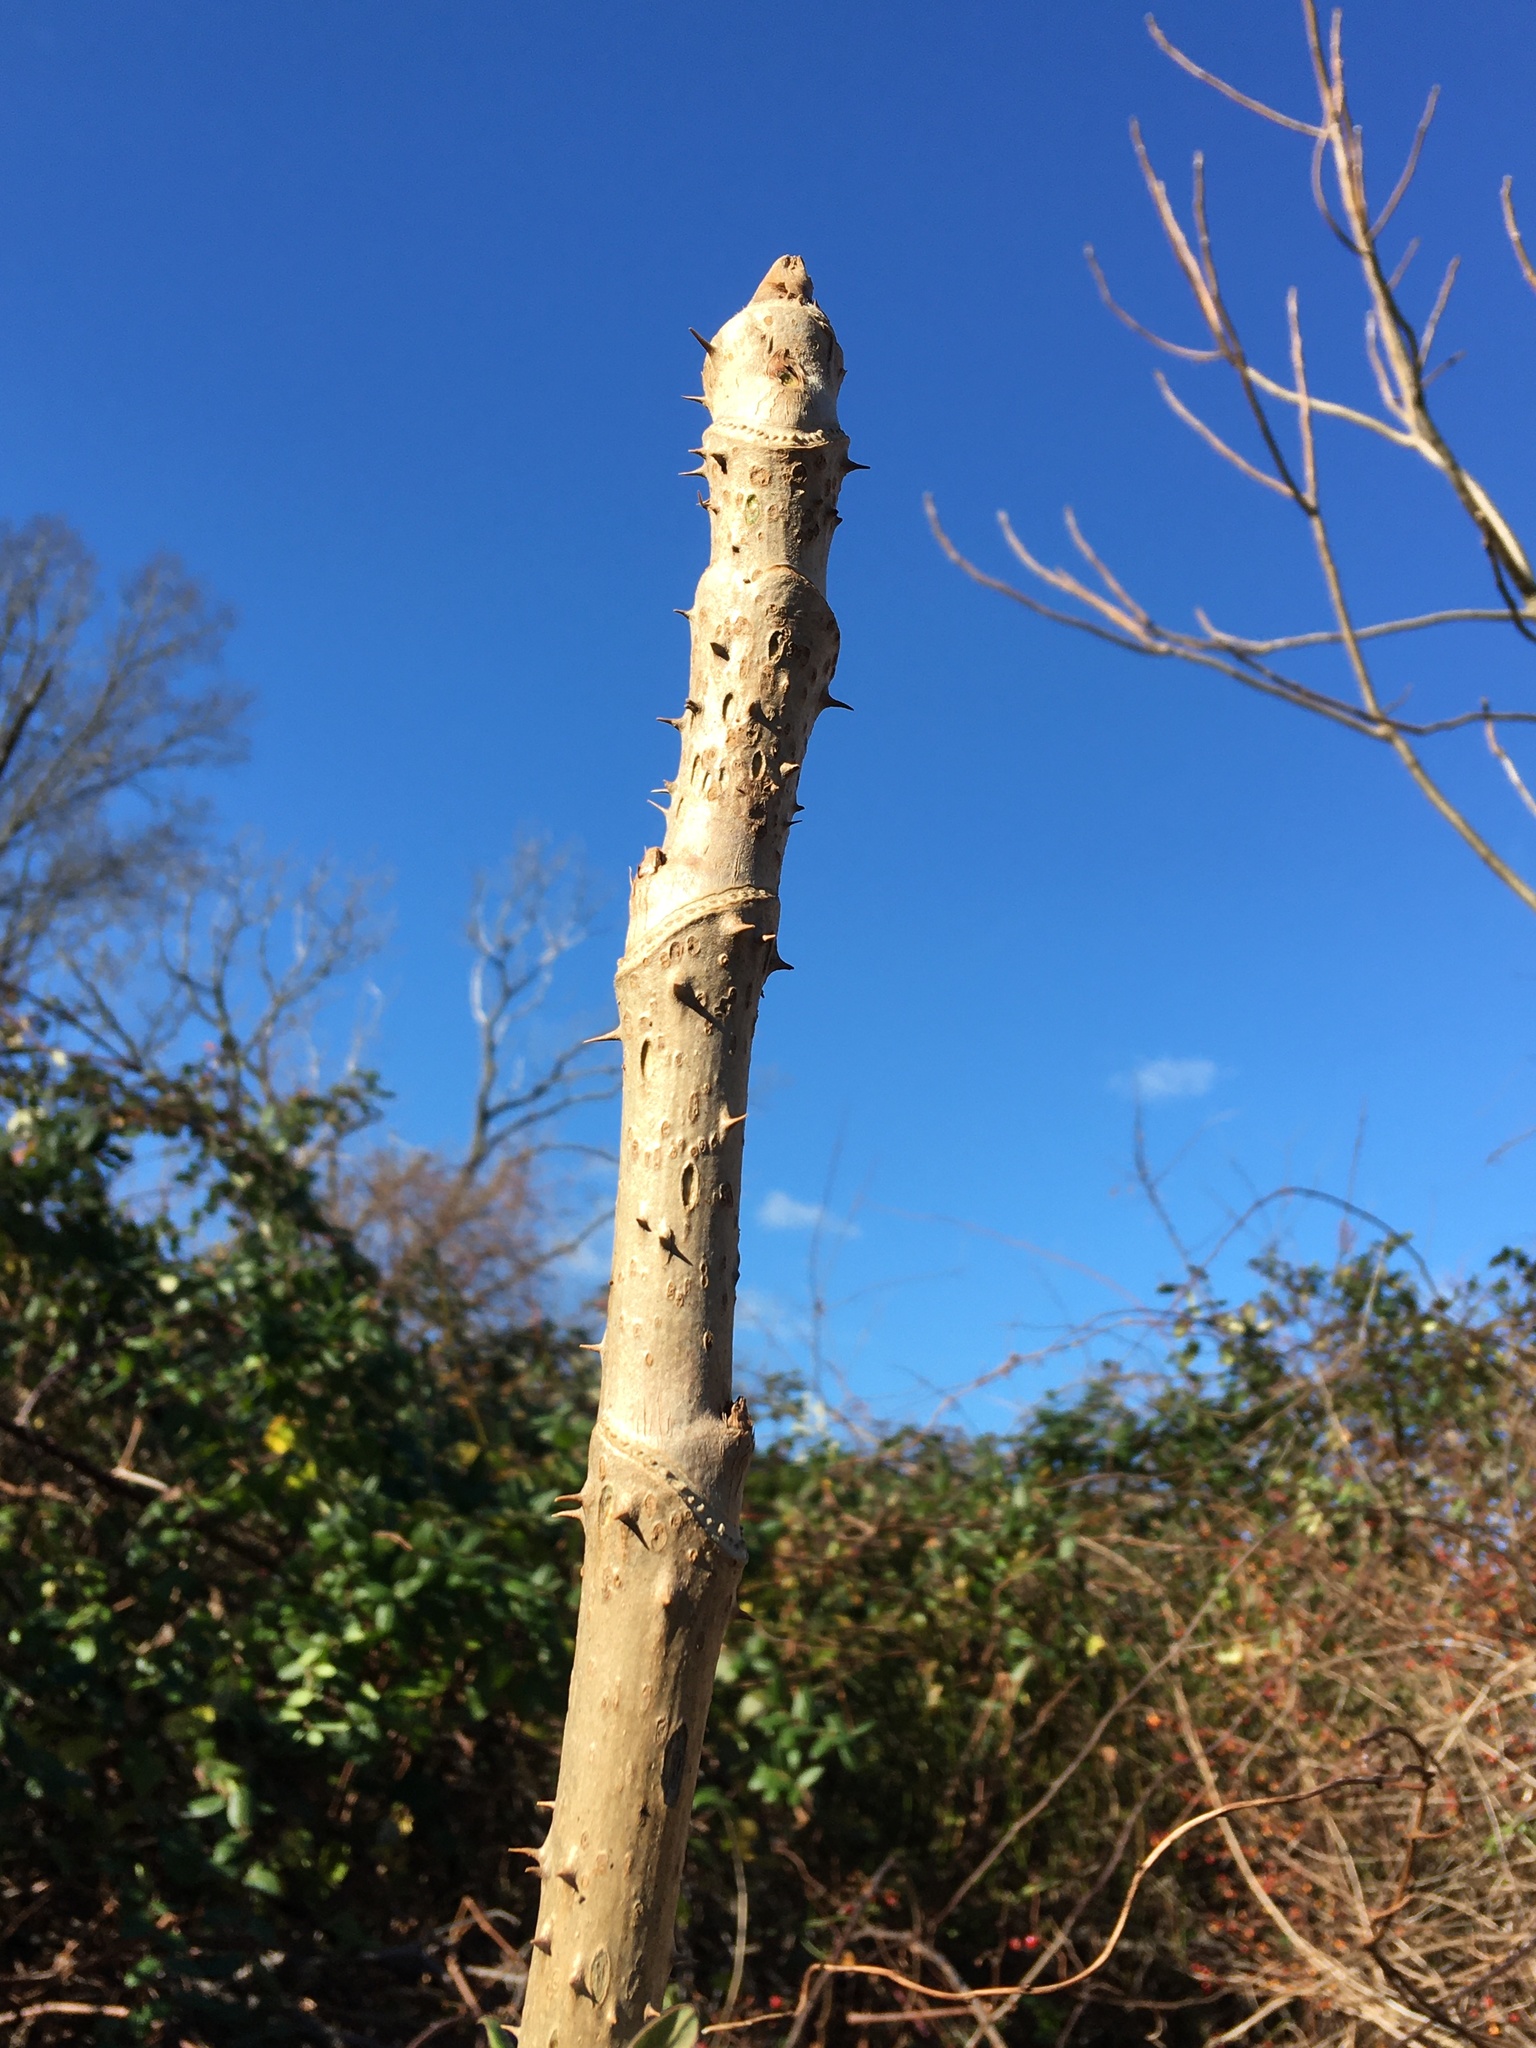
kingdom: Plantae
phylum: Tracheophyta
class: Magnoliopsida
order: Apiales
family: Araliaceae
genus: Aralia
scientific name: Aralia elata
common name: Japanese angelica-tree
